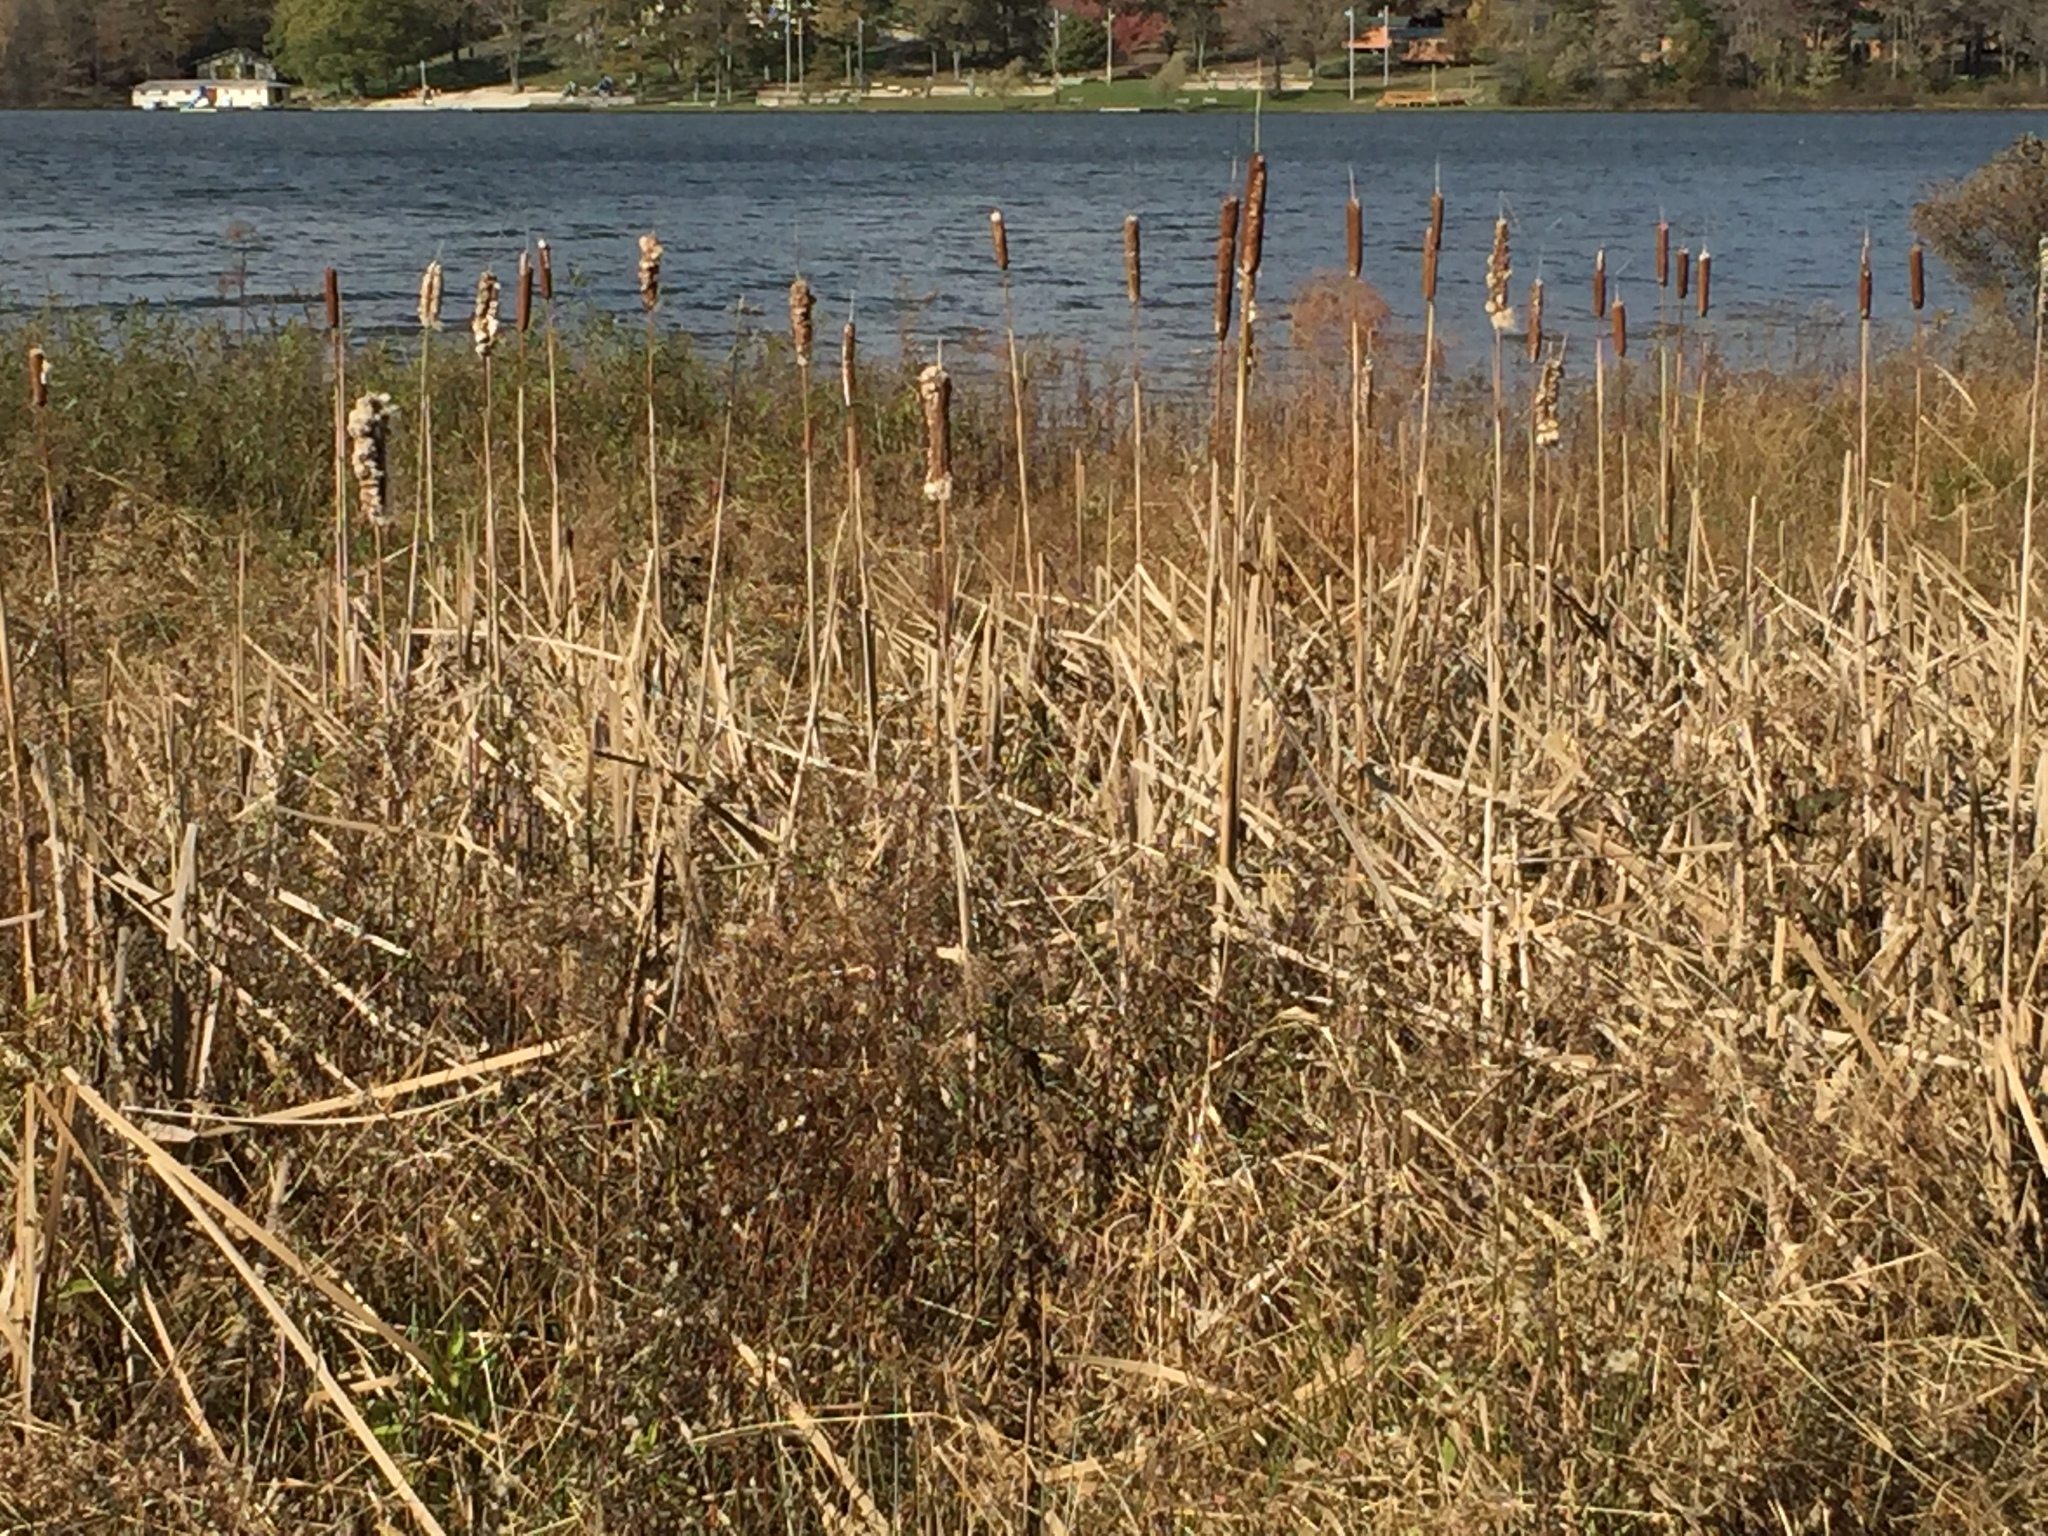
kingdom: Plantae
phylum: Tracheophyta
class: Liliopsida
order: Poales
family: Typhaceae
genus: Typha
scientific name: Typha latifolia
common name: Broadleaf cattail
